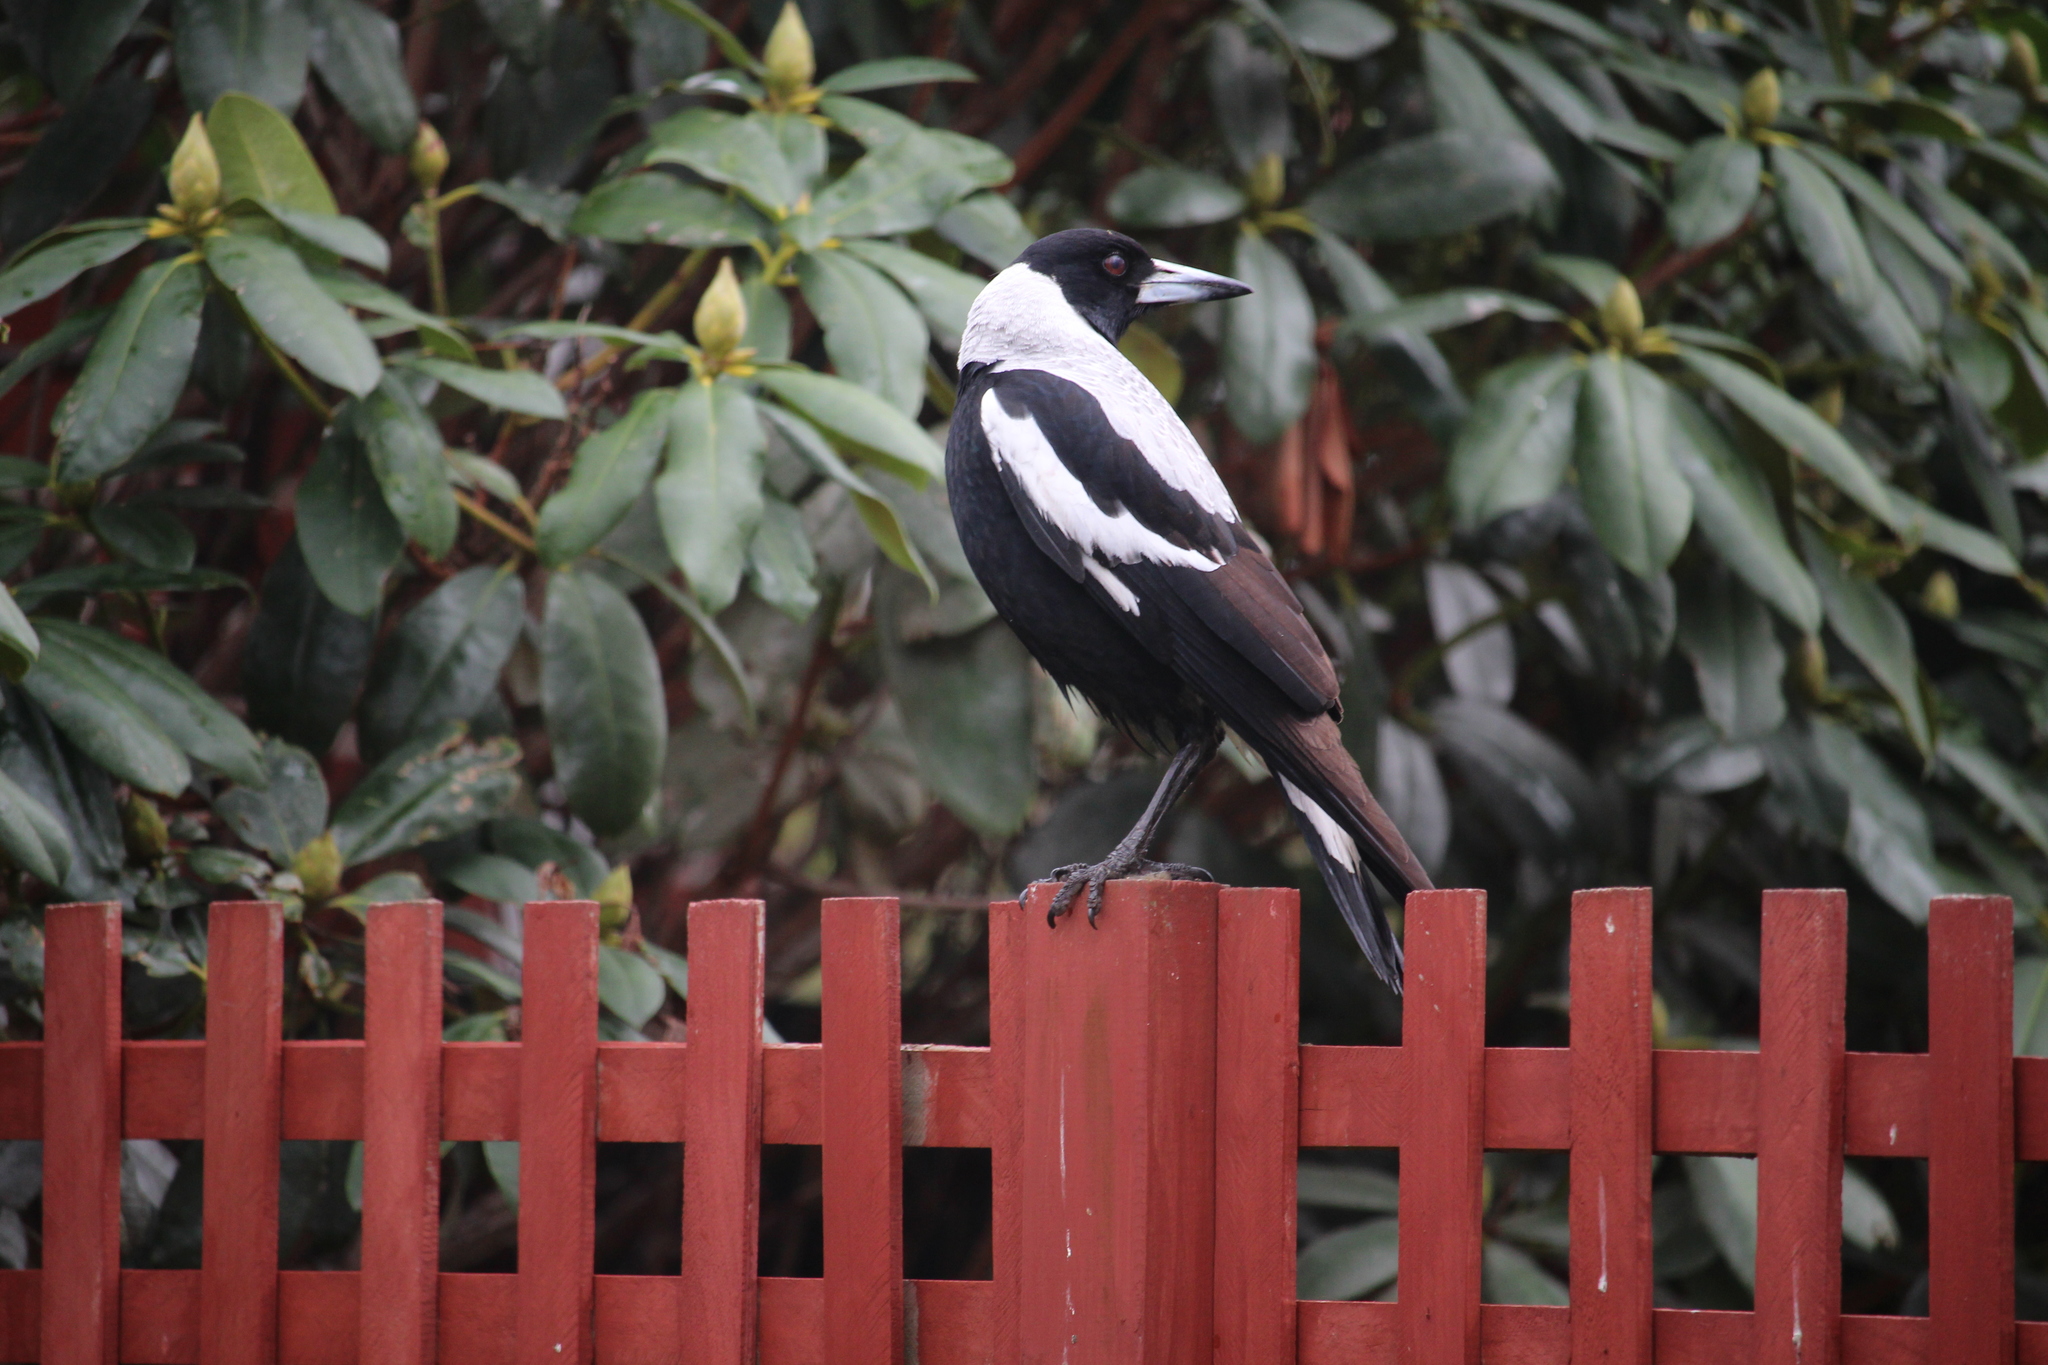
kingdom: Animalia
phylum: Chordata
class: Aves
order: Passeriformes
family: Cracticidae
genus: Gymnorhina
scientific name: Gymnorhina tibicen
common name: Australian magpie
